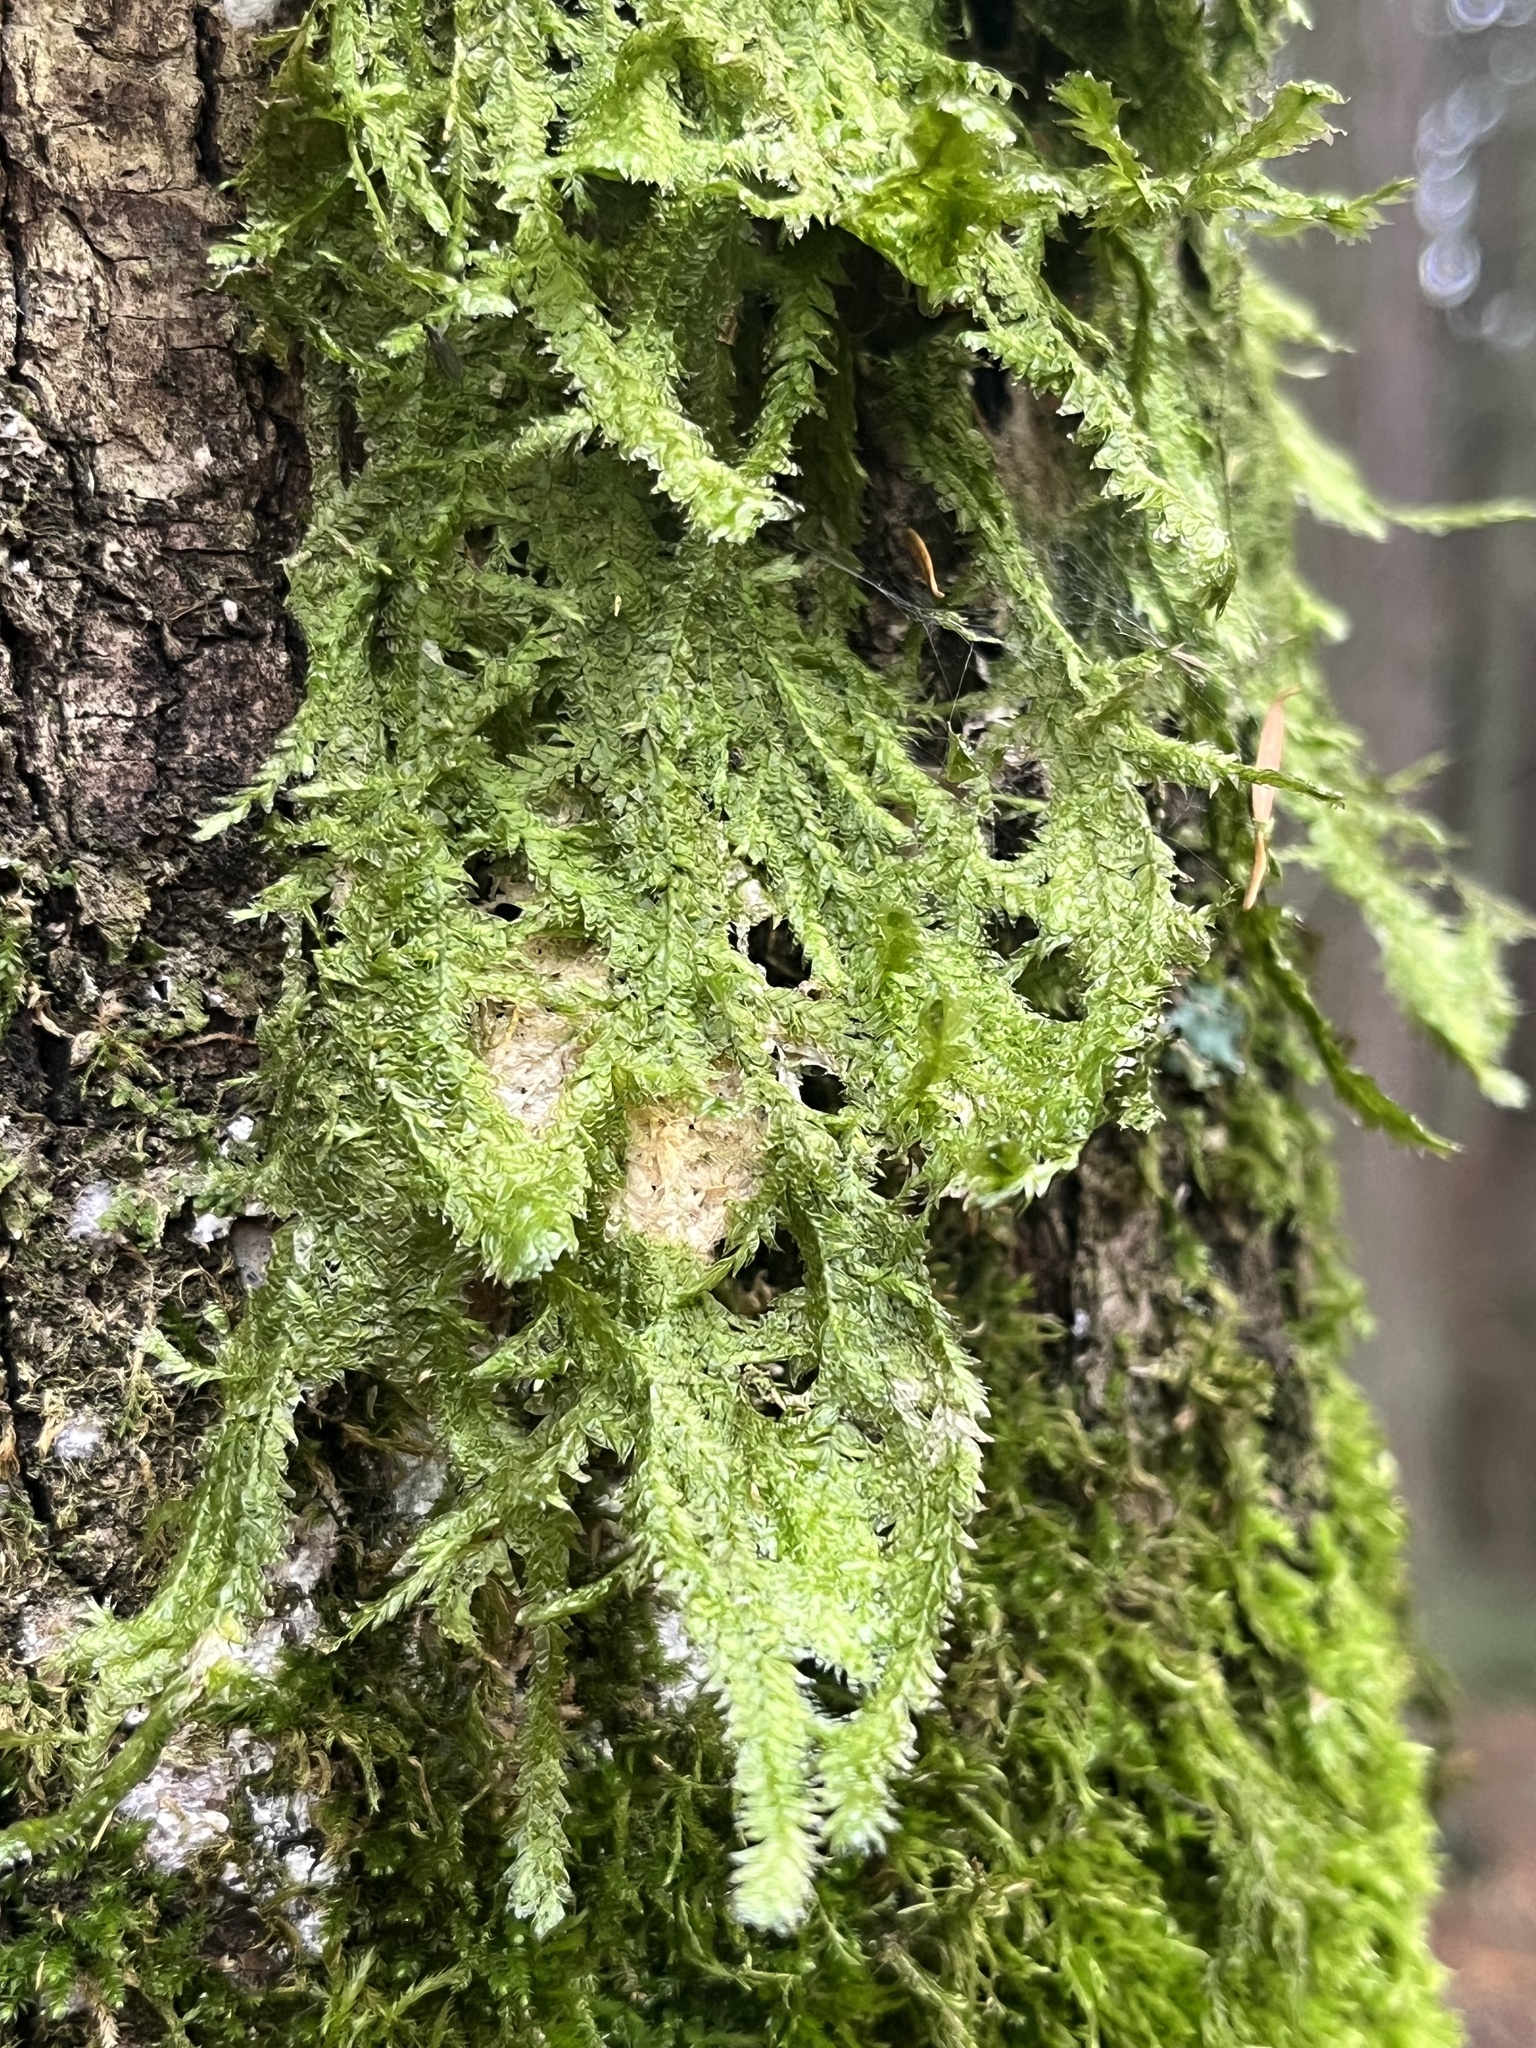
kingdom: Plantae
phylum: Bryophyta
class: Bryopsida
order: Hypnales
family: Neckeraceae
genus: Neckera
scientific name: Neckera douglasii
